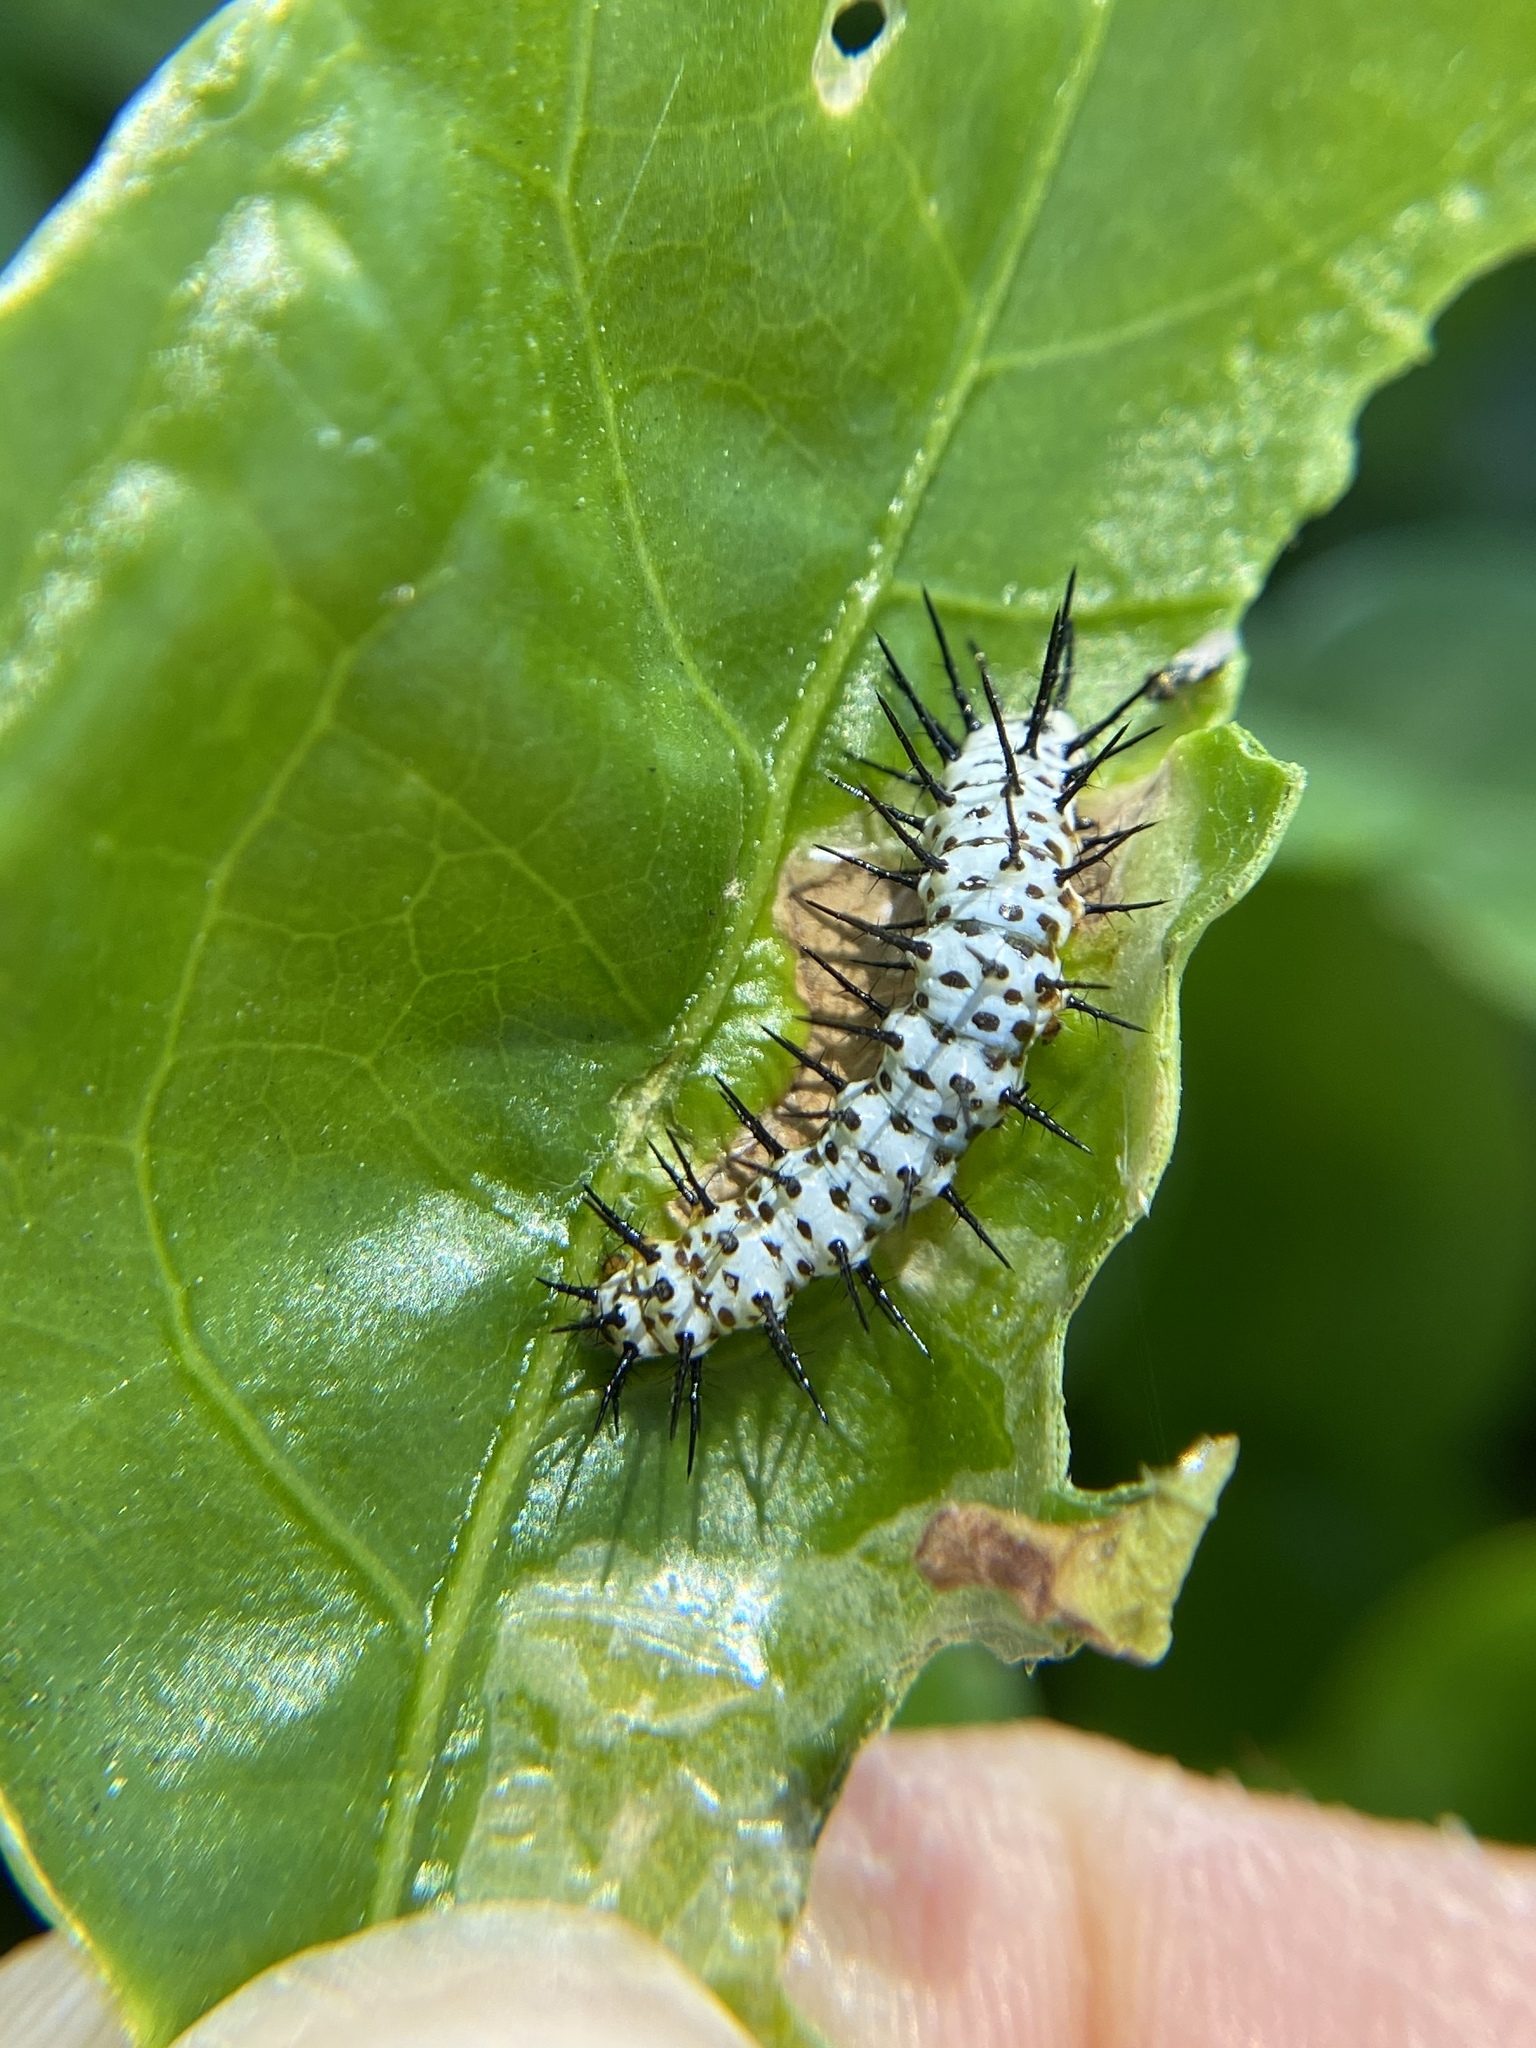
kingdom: Animalia
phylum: Arthropoda
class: Insecta
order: Lepidoptera
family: Nymphalidae
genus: Heliconius
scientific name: Heliconius charithonia
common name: Zebra long wing
